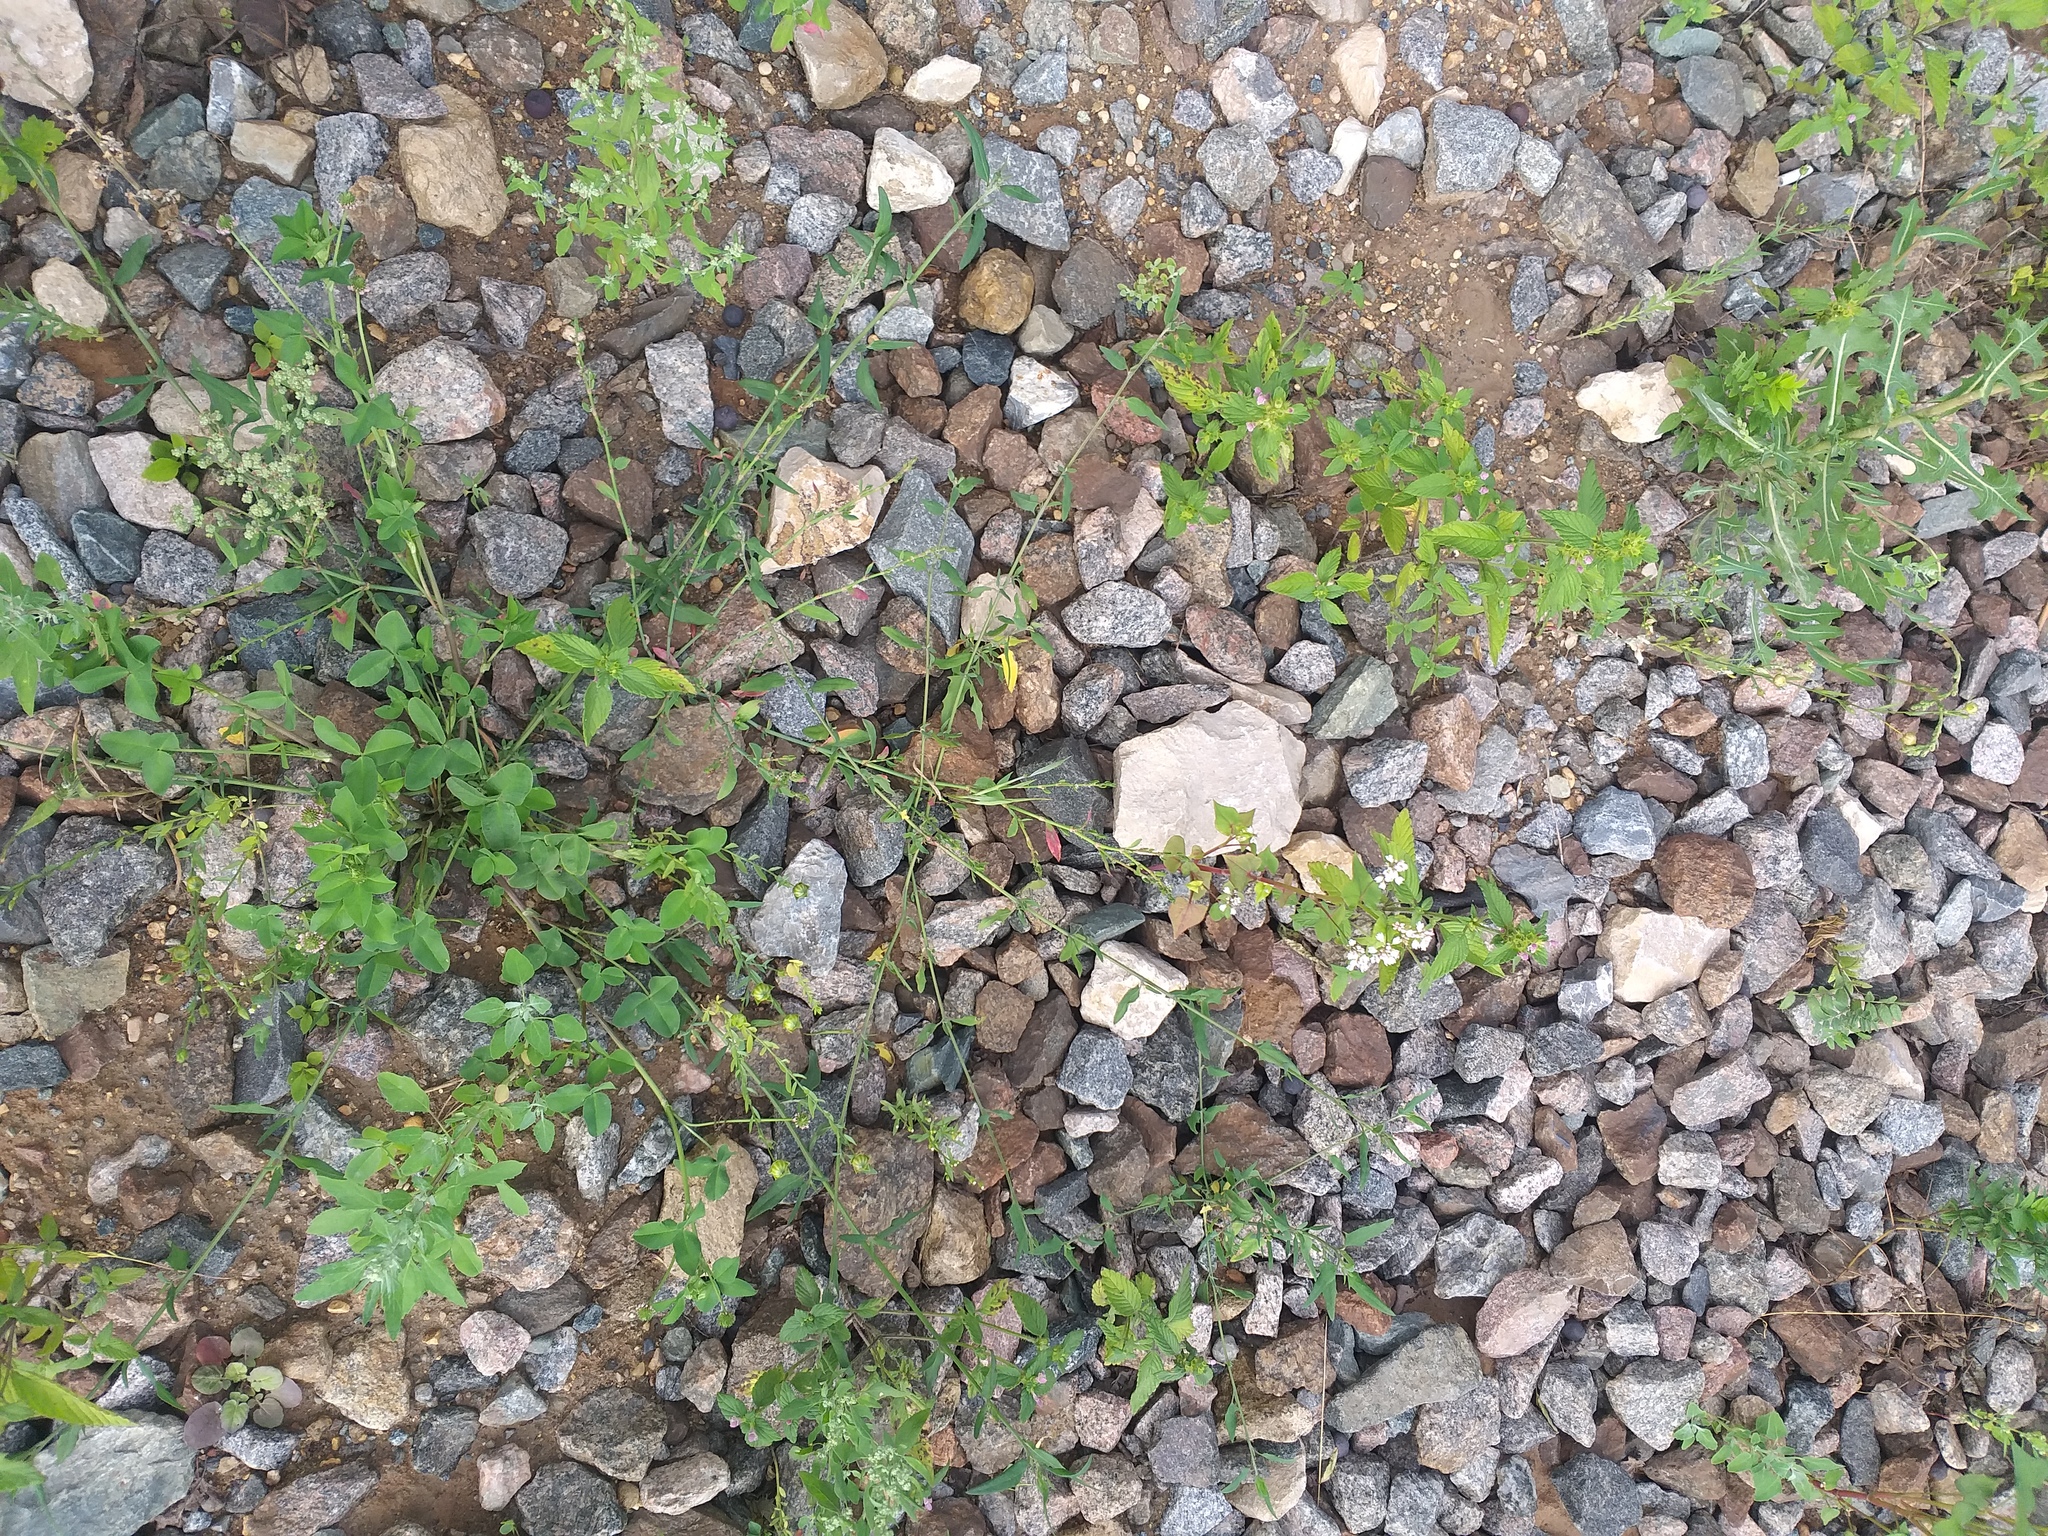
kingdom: Plantae
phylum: Tracheophyta
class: Magnoliopsida
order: Caryophyllales
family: Amaranthaceae
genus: Atriplex
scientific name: Atriplex patula
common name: Common orache
